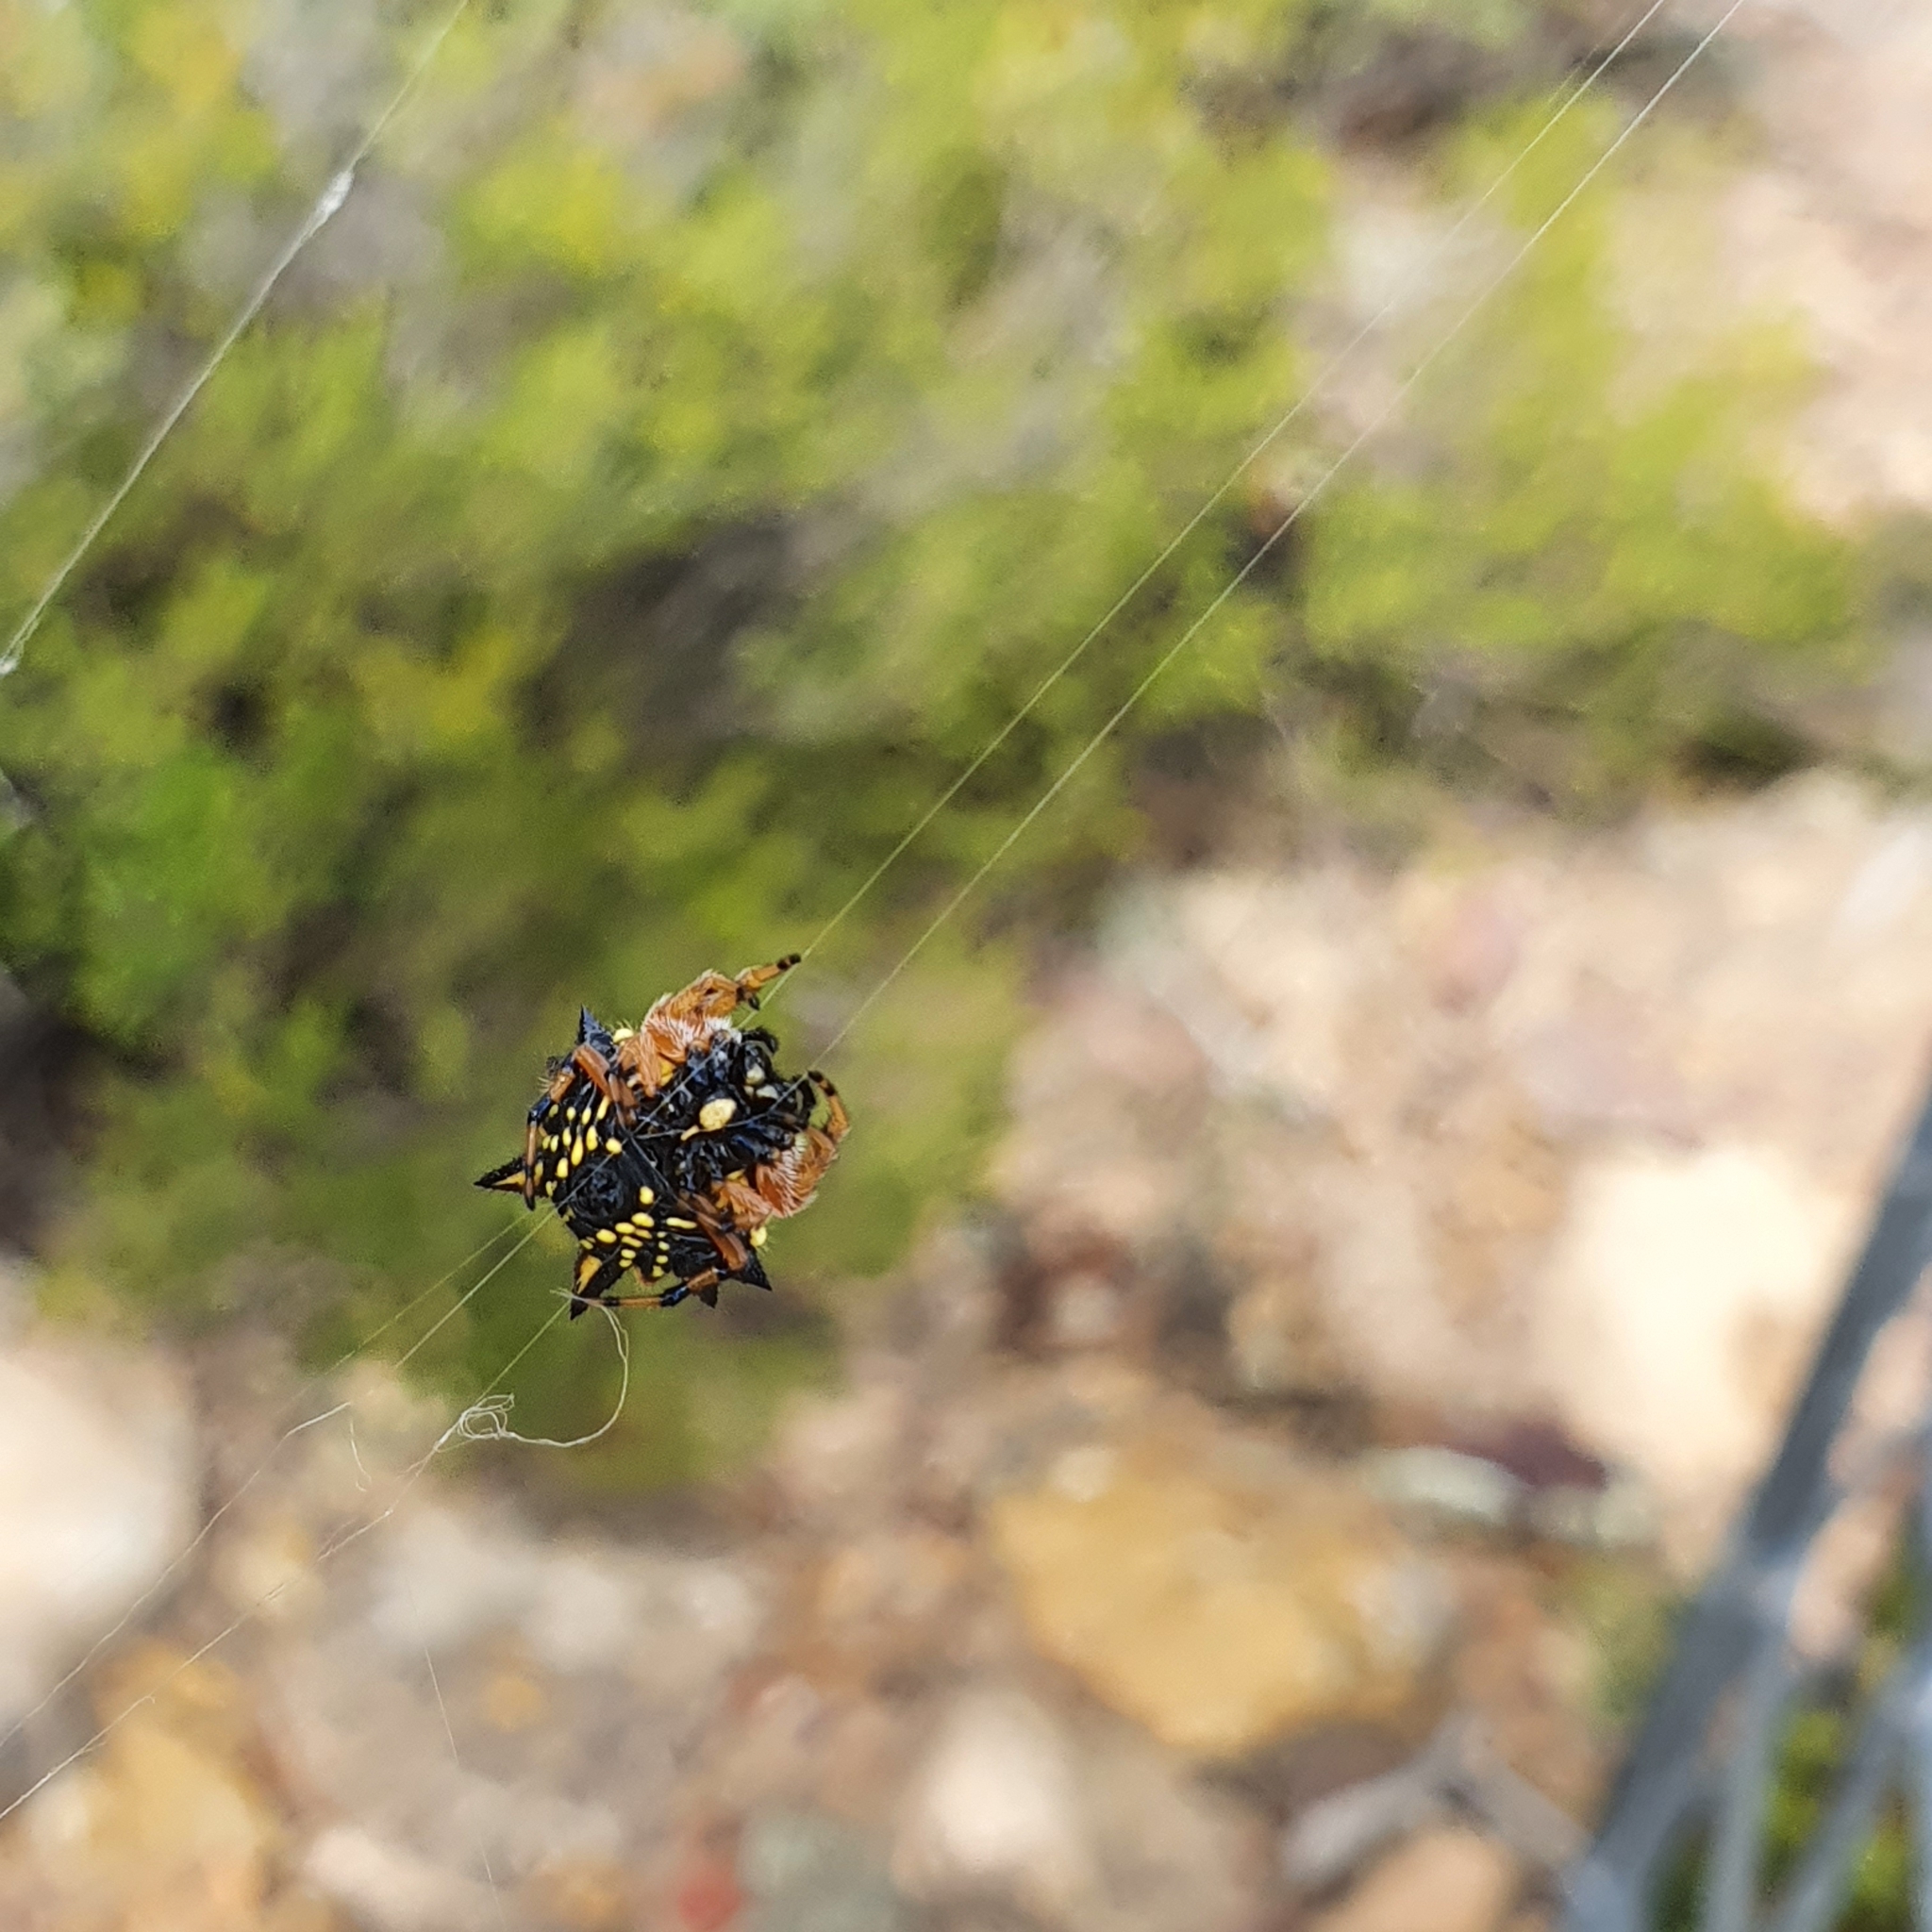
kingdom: Animalia
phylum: Arthropoda
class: Arachnida
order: Araneae
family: Araneidae
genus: Austracantha
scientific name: Austracantha minax
